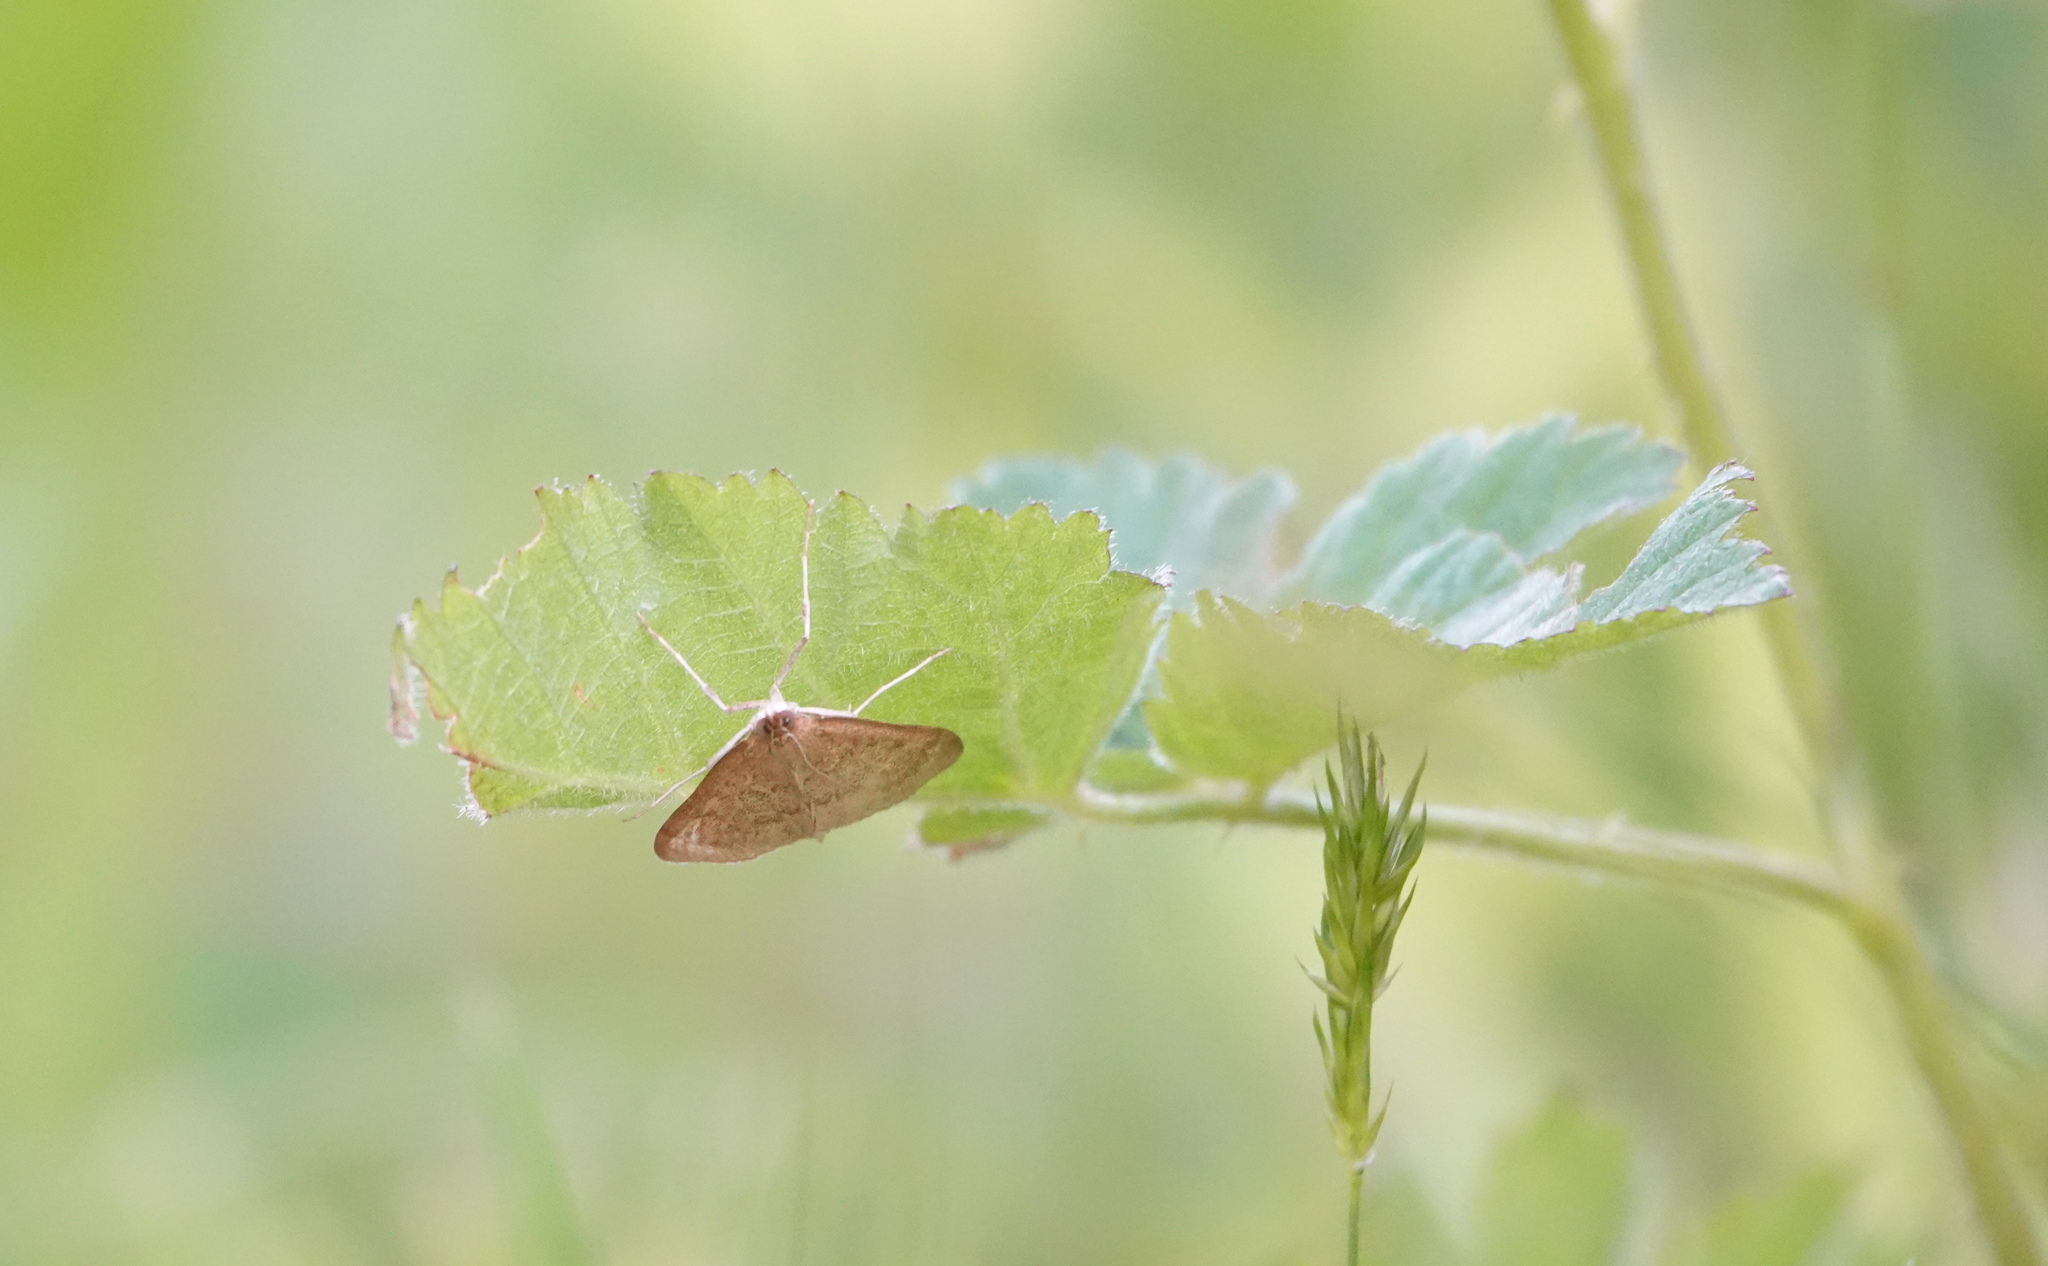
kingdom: Animalia
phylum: Arthropoda
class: Insecta
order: Lepidoptera
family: Crambidae
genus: Saucrobotys
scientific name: Saucrobotys futilalis
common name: Dogbane saucrobotys moth
